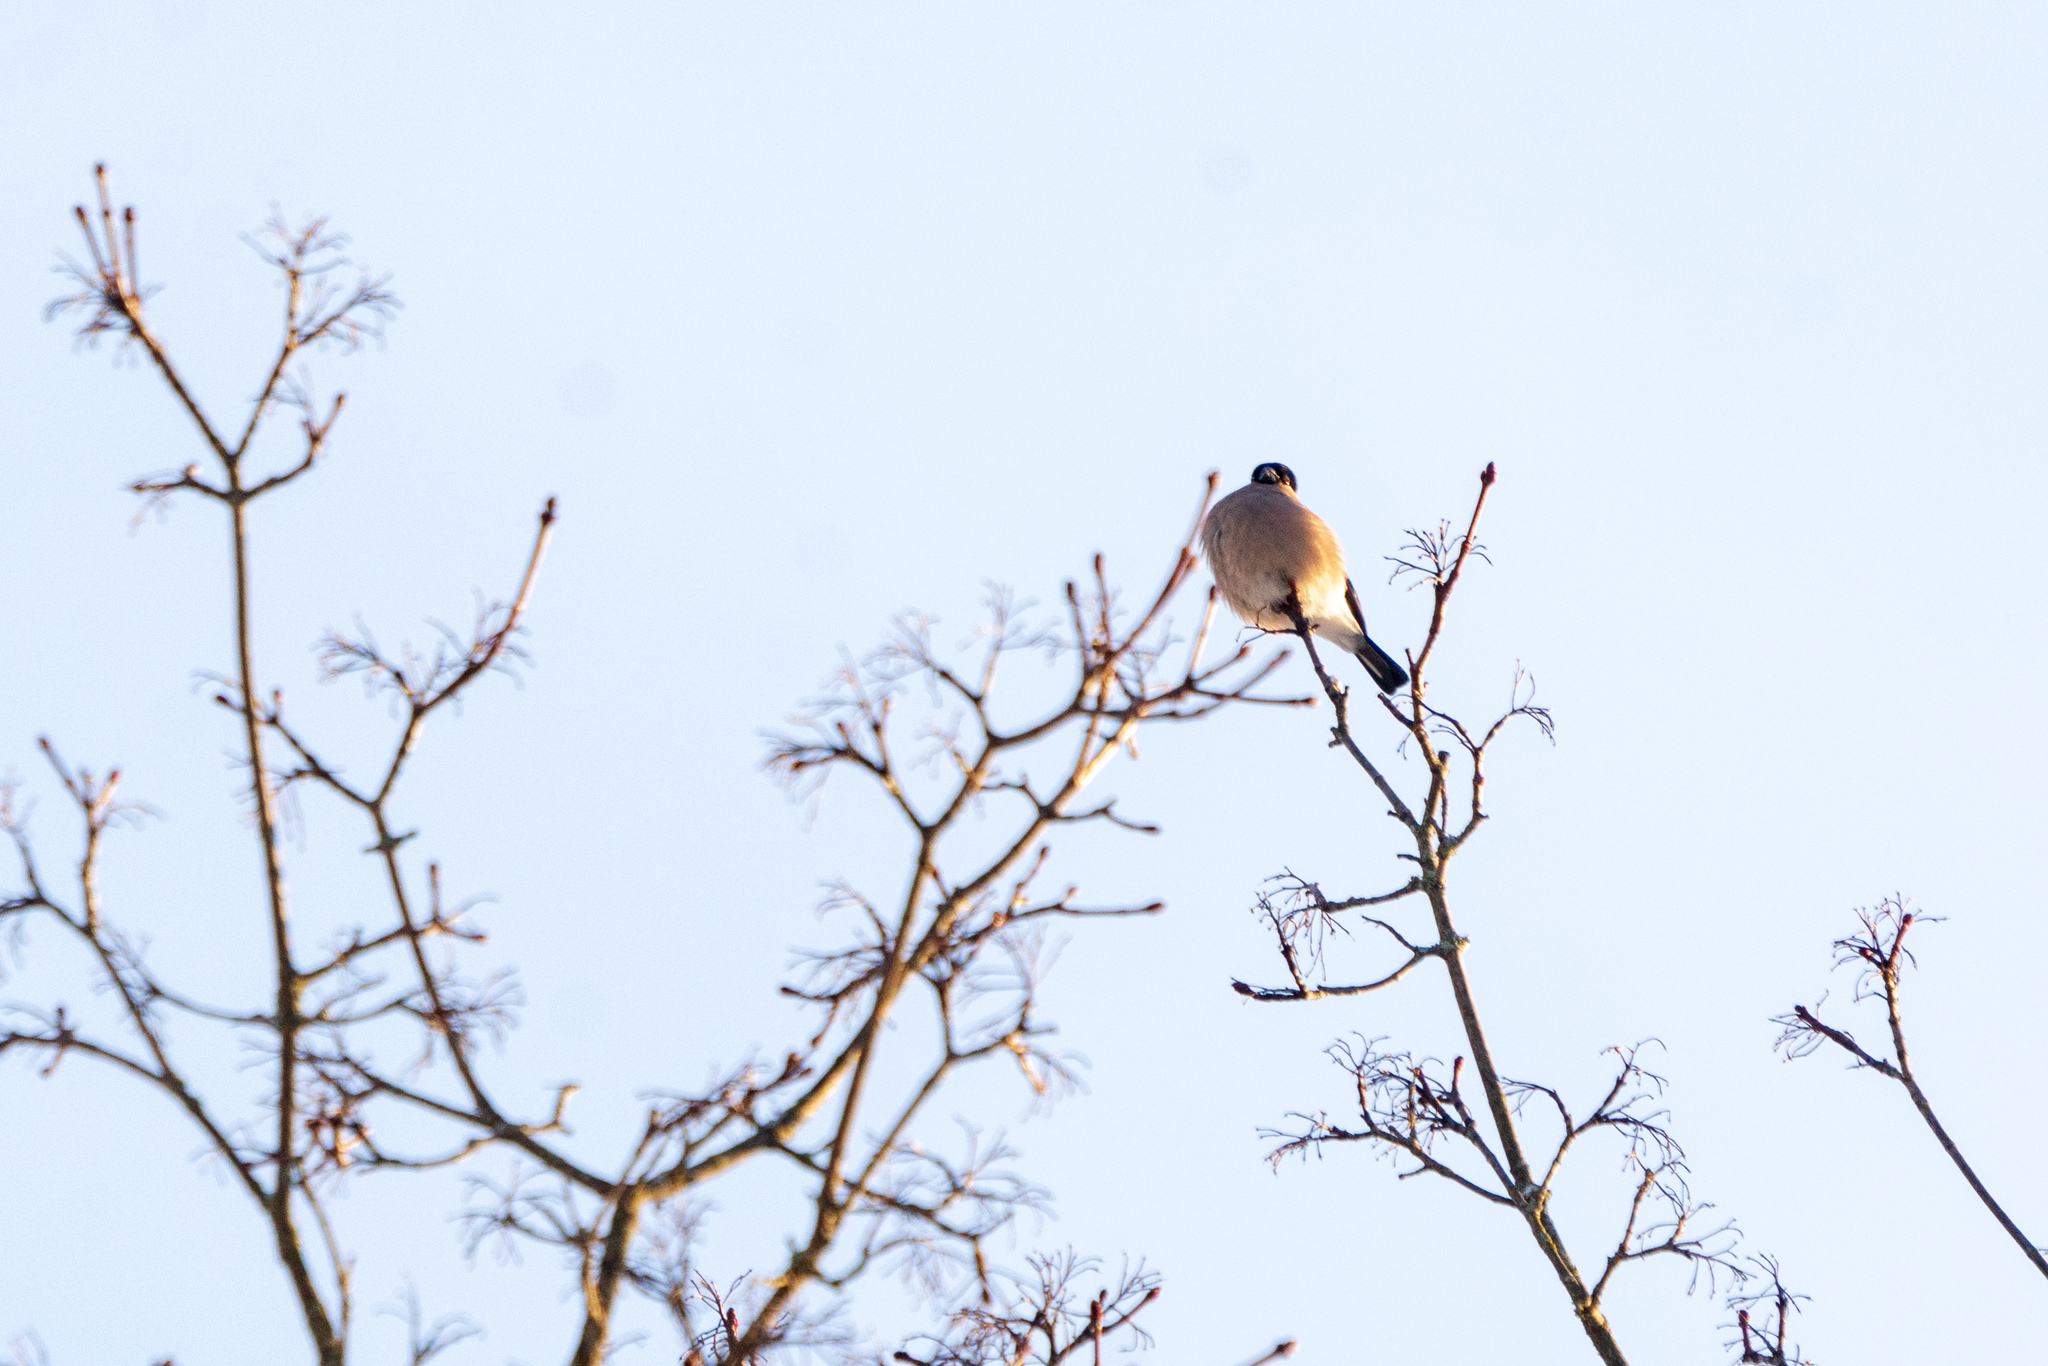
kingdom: Animalia
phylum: Chordata
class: Aves
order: Passeriformes
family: Fringillidae
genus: Pyrrhula
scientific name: Pyrrhula pyrrhula
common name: Eurasian bullfinch
